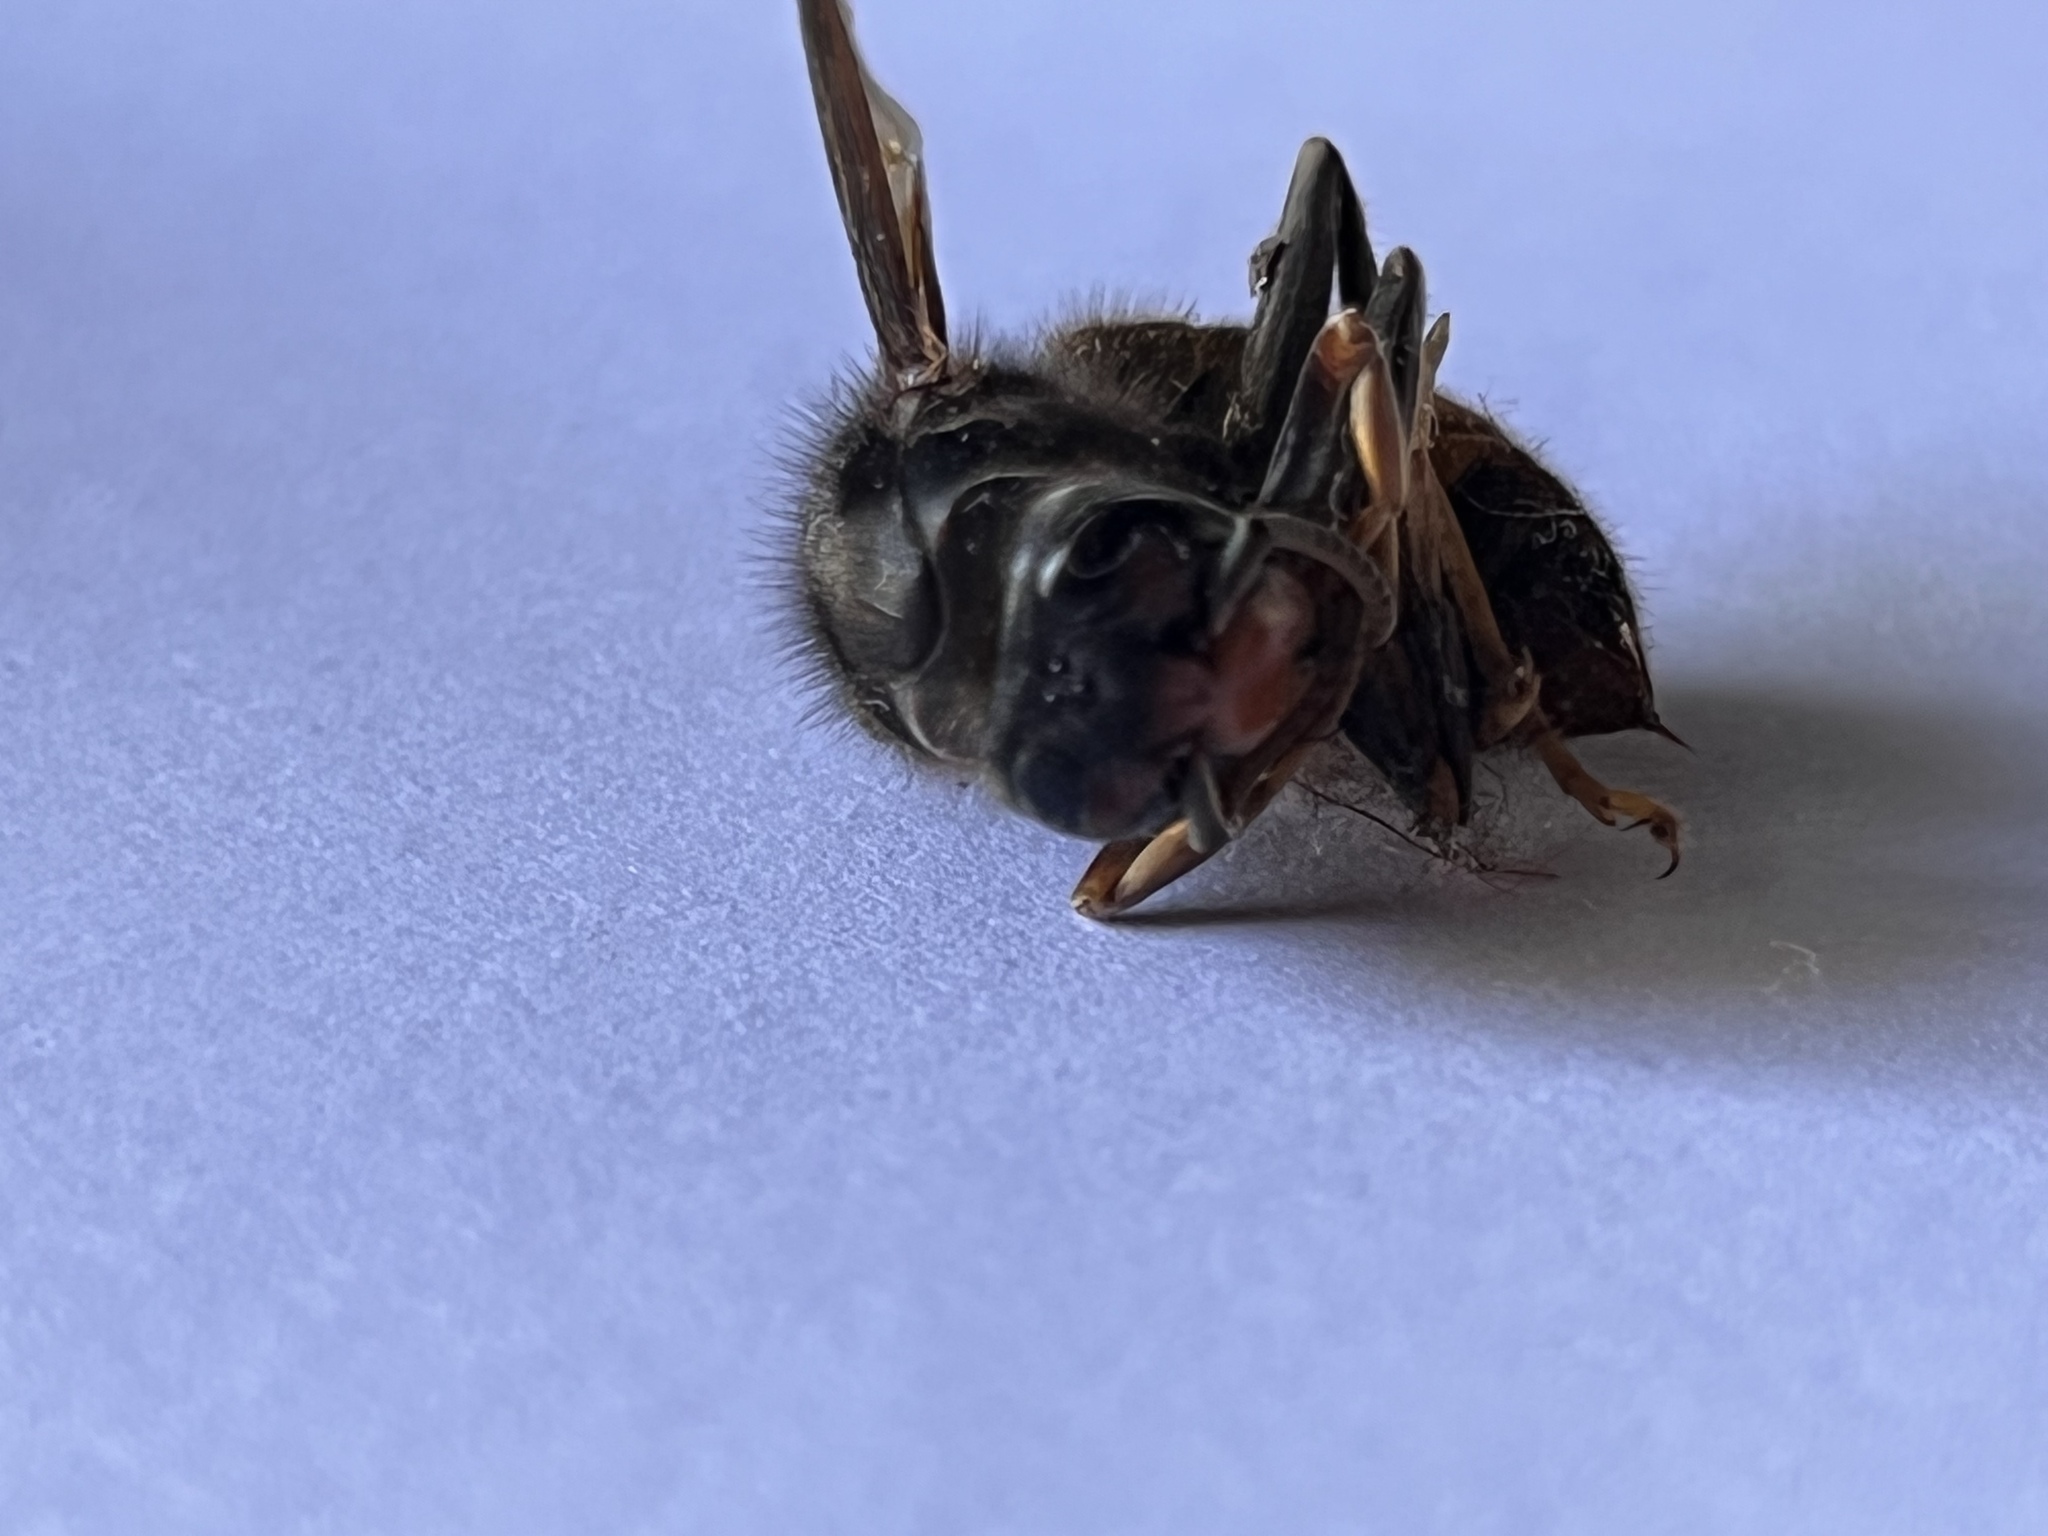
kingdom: Animalia
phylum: Arthropoda
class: Insecta
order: Hymenoptera
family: Vespidae
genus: Vespa
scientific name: Vespa velutina
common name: Asian hornet
